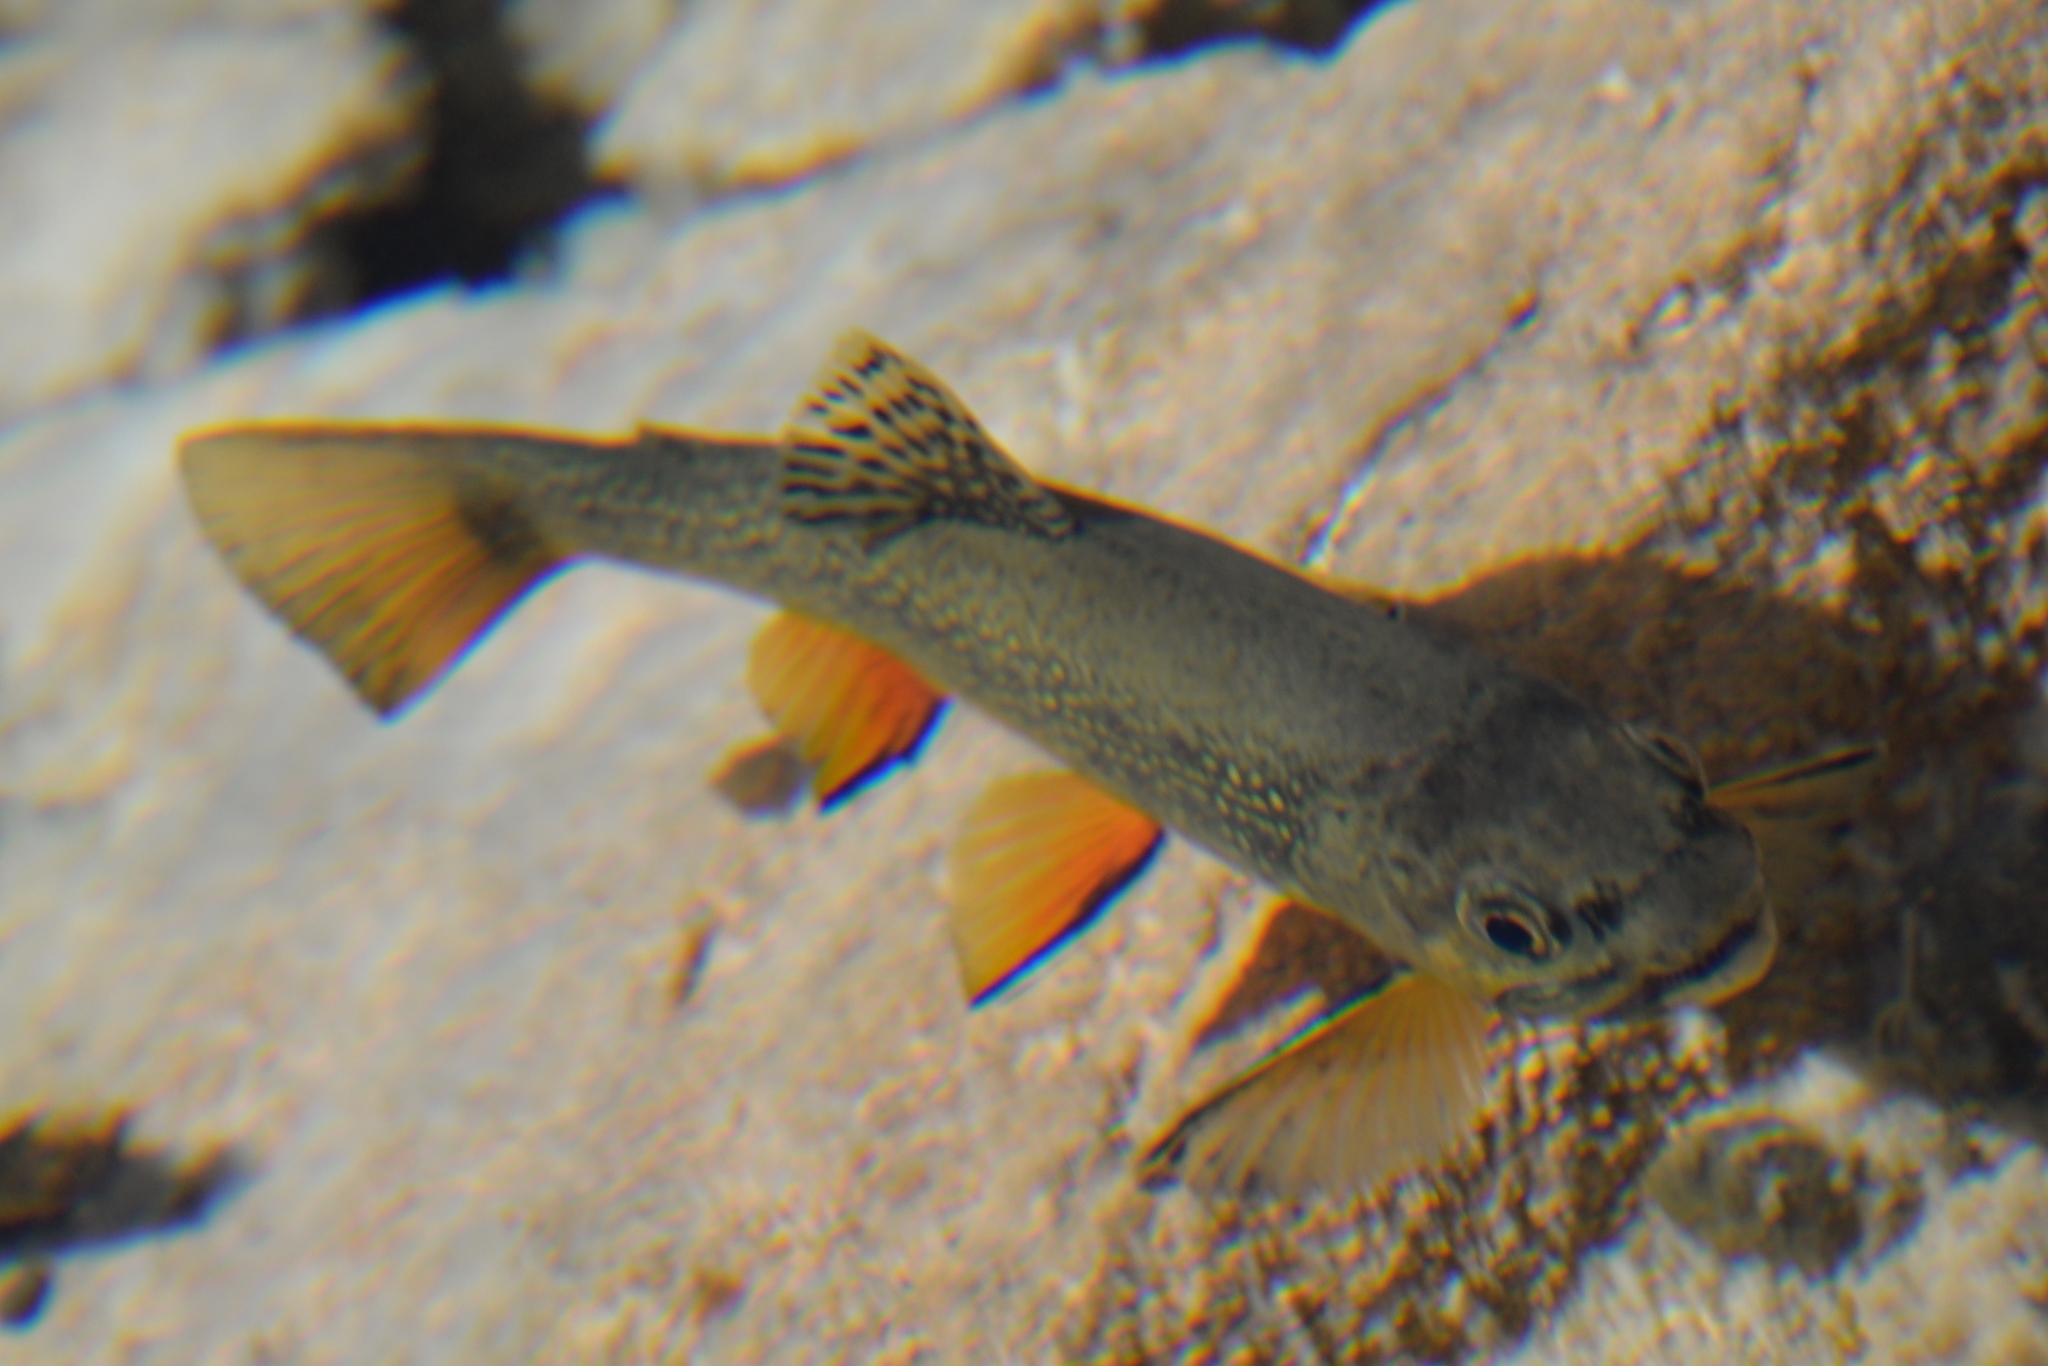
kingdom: Animalia
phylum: Chordata
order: Salmoniformes
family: Salmonidae
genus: Salvelinus
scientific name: Salvelinus fontinalis
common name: Brook trout
